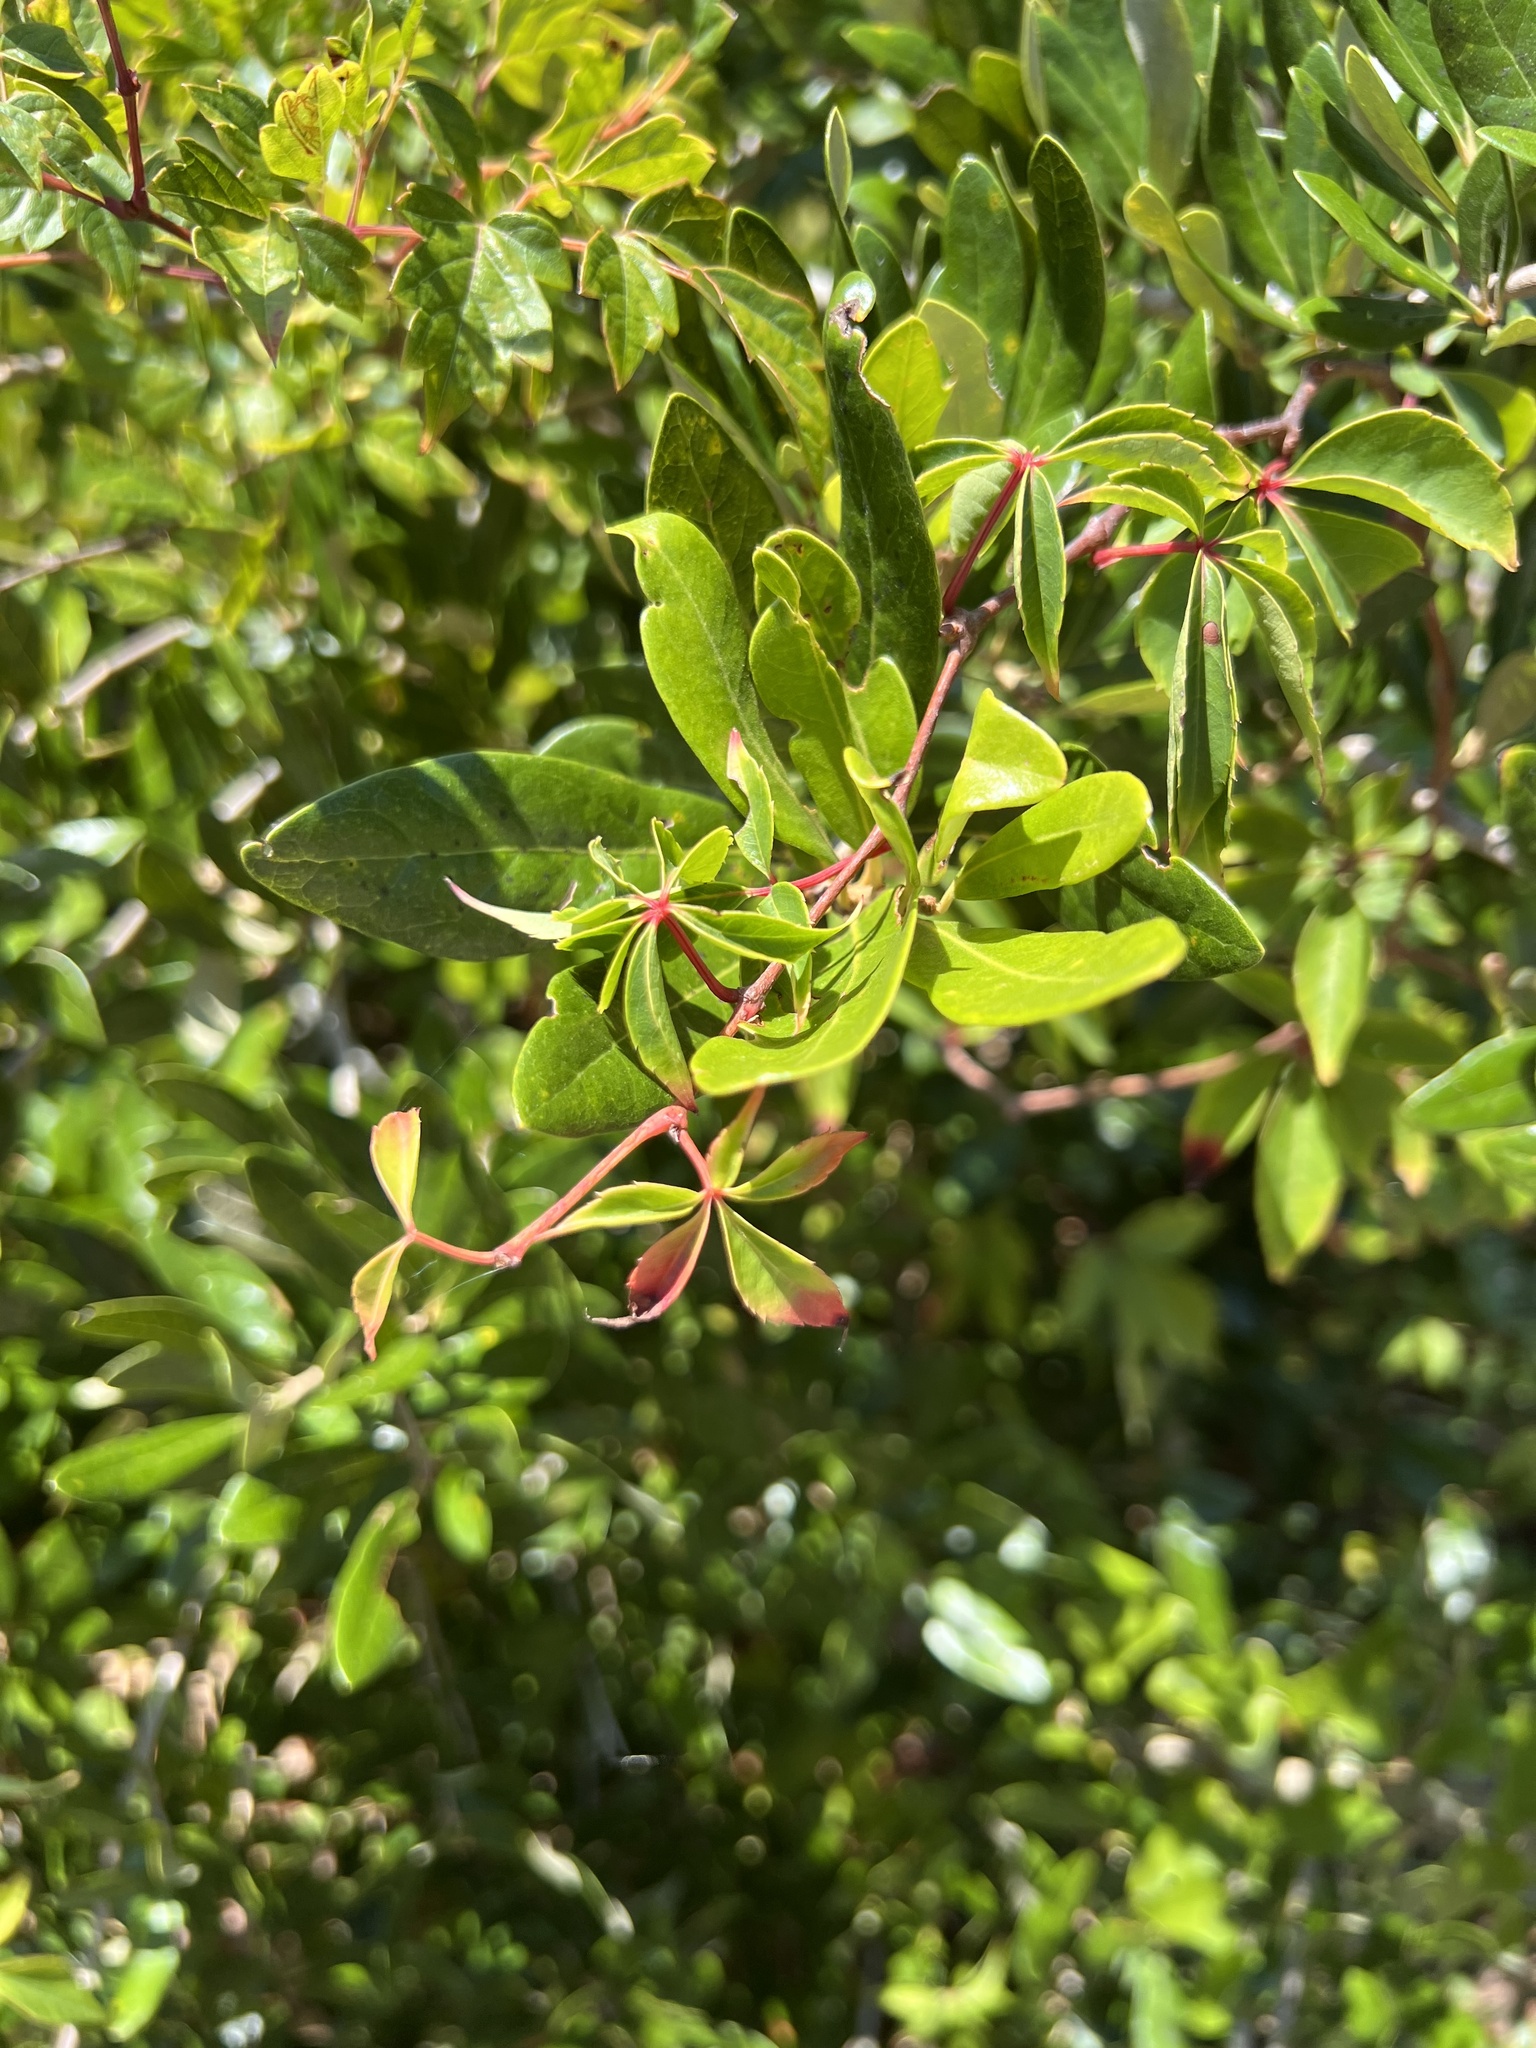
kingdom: Plantae
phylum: Tracheophyta
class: Magnoliopsida
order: Vitales
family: Vitaceae
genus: Parthenocissus
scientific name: Parthenocissus quinquefolia
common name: Virginia-creeper
